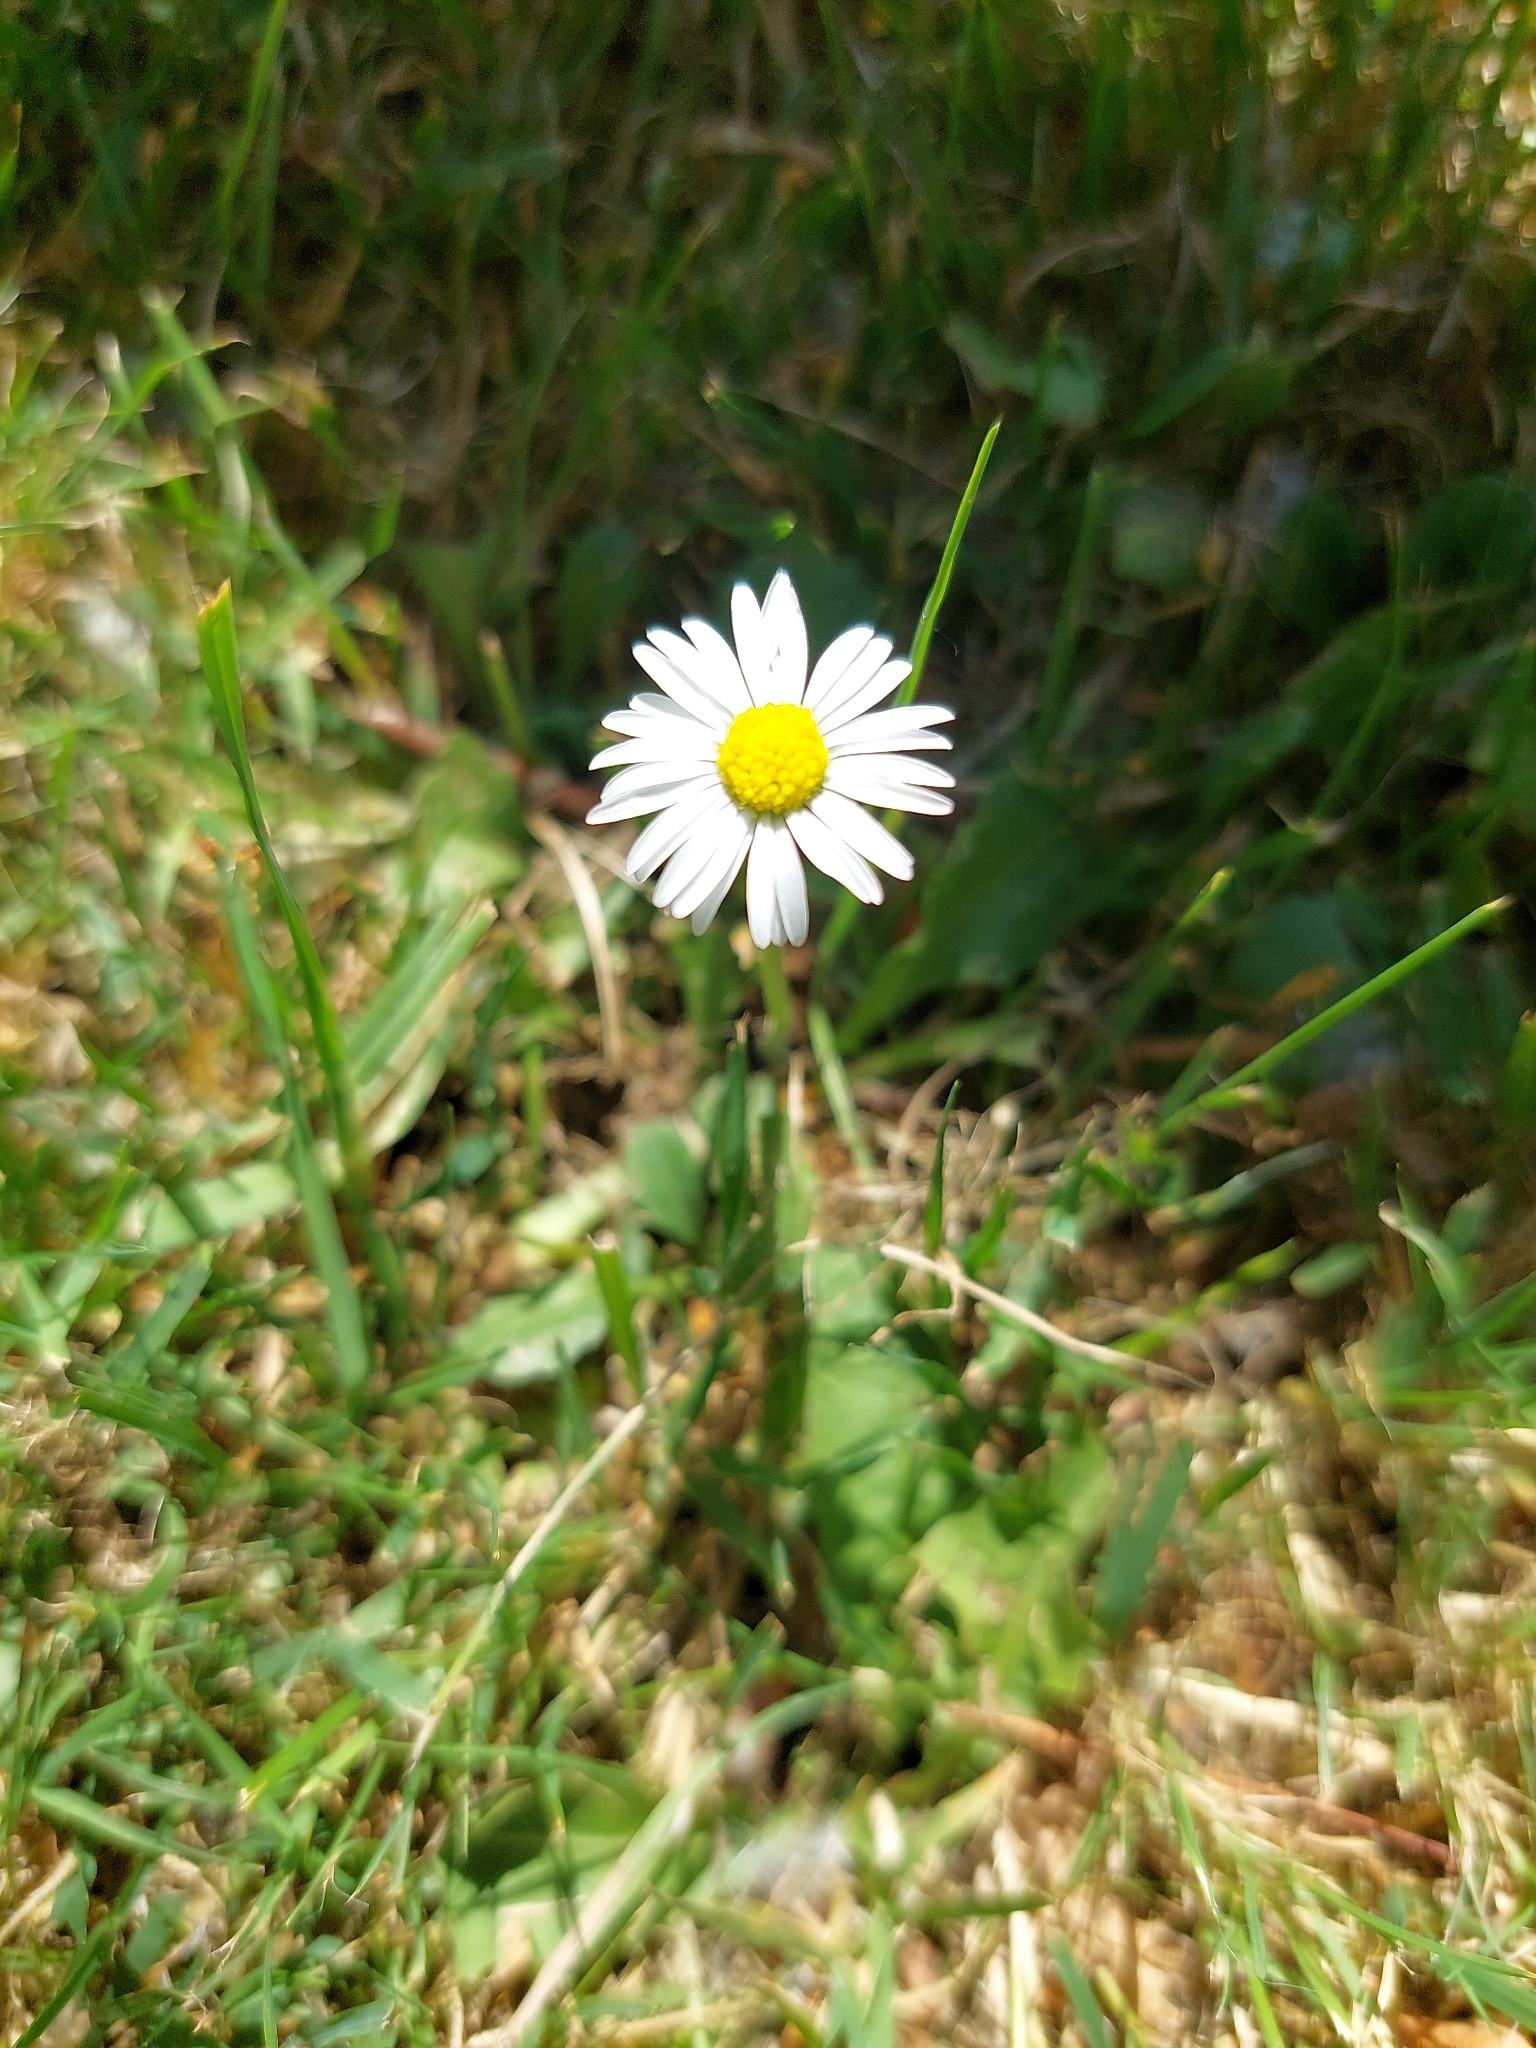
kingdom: Plantae
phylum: Tracheophyta
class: Magnoliopsida
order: Asterales
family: Asteraceae
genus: Bellis
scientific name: Bellis perennis
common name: Lawndaisy
